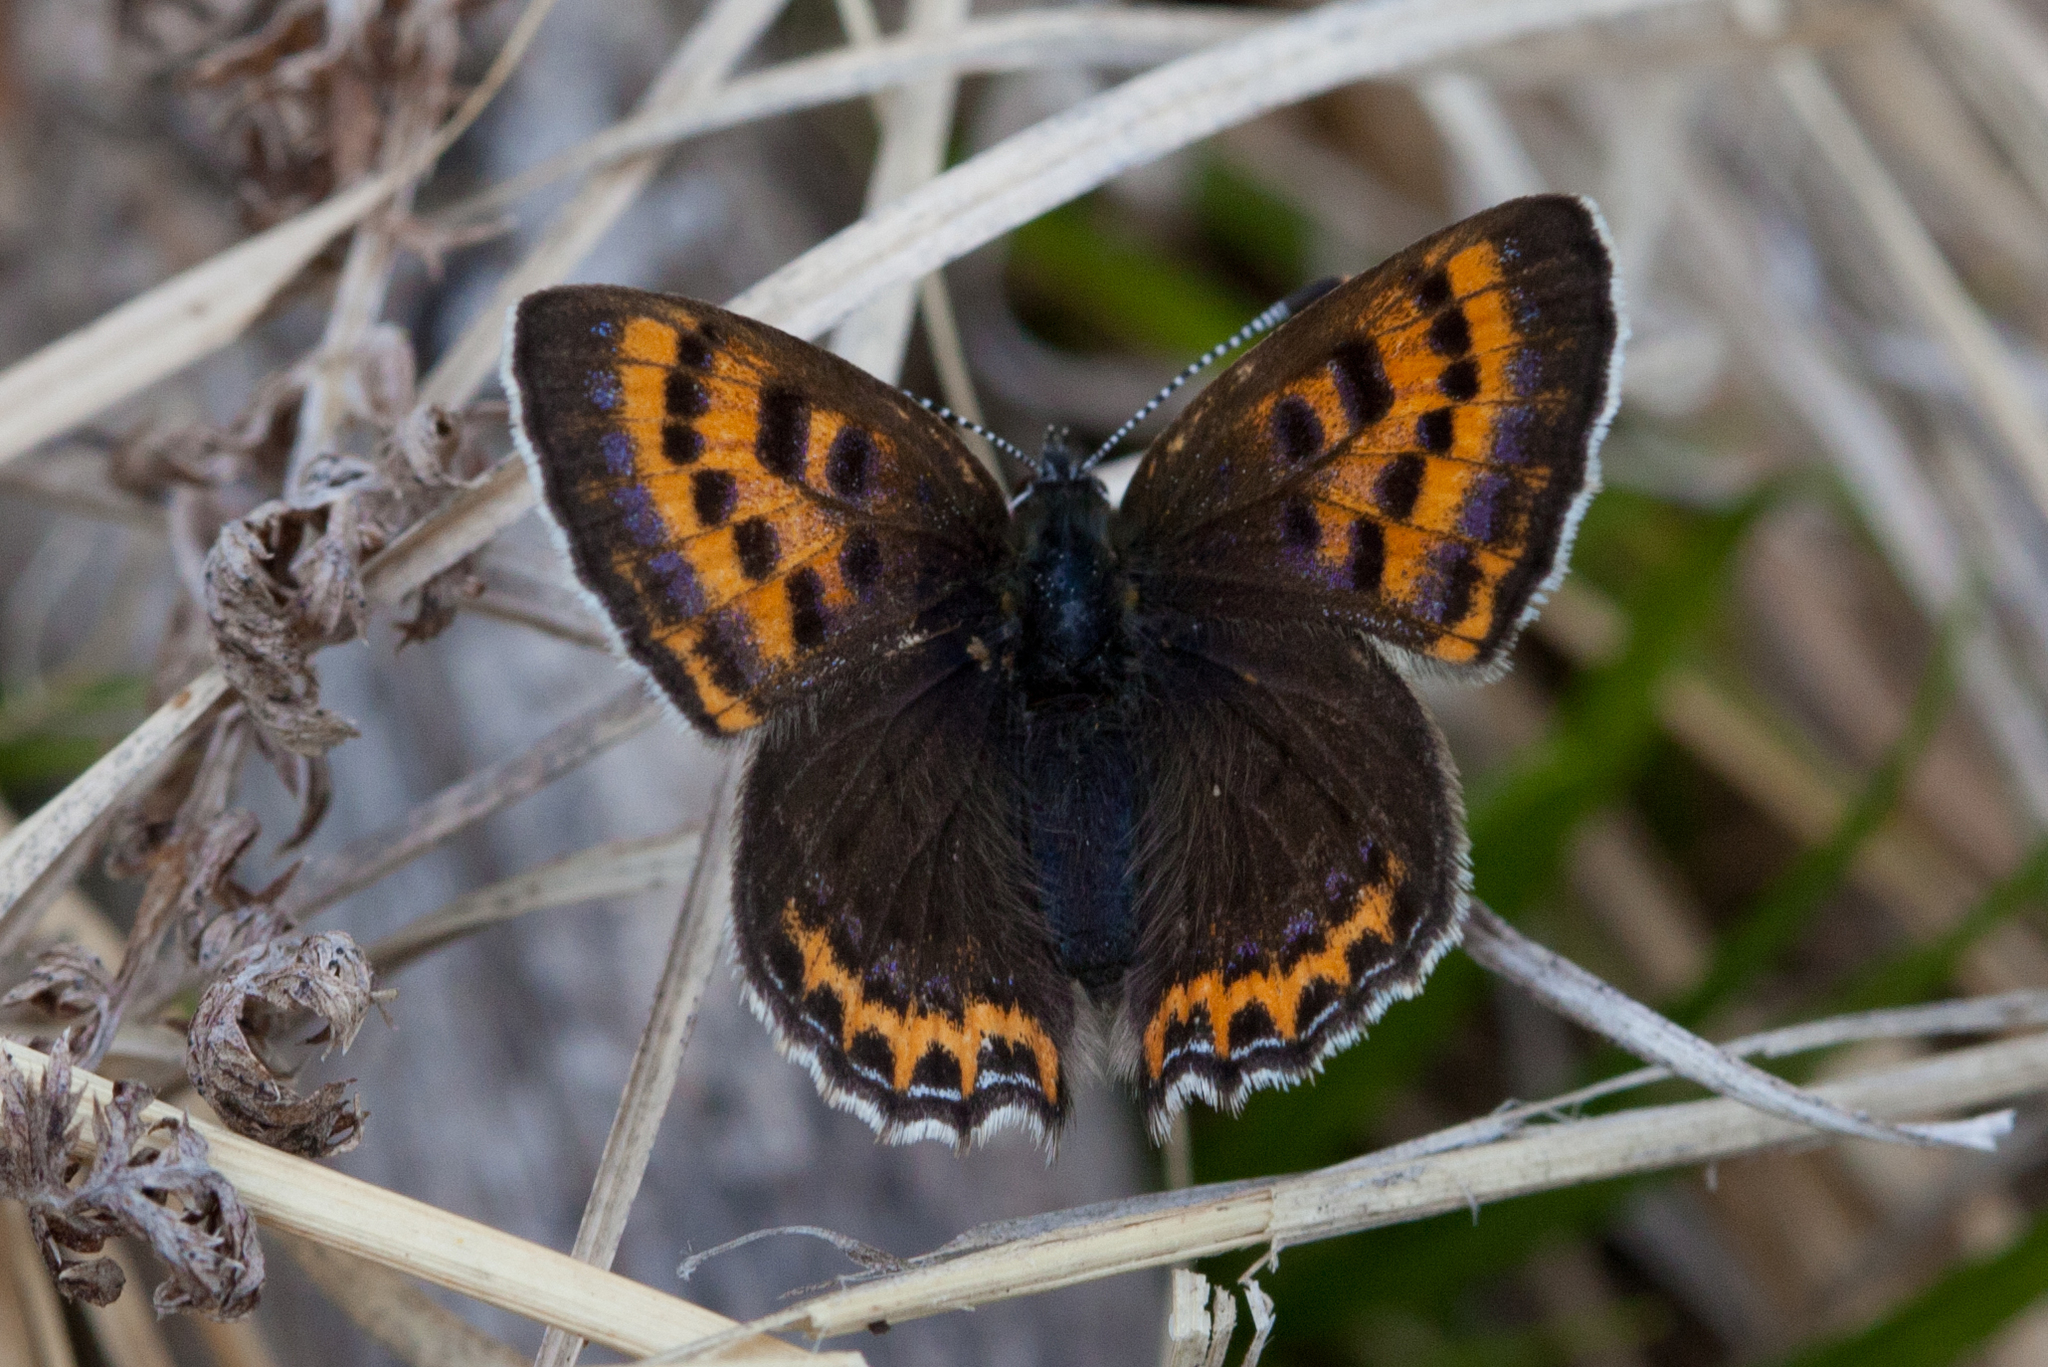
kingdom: Animalia
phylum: Arthropoda
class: Insecta
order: Lepidoptera
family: Lycaenidae
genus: Helleia
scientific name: Helleia helle
